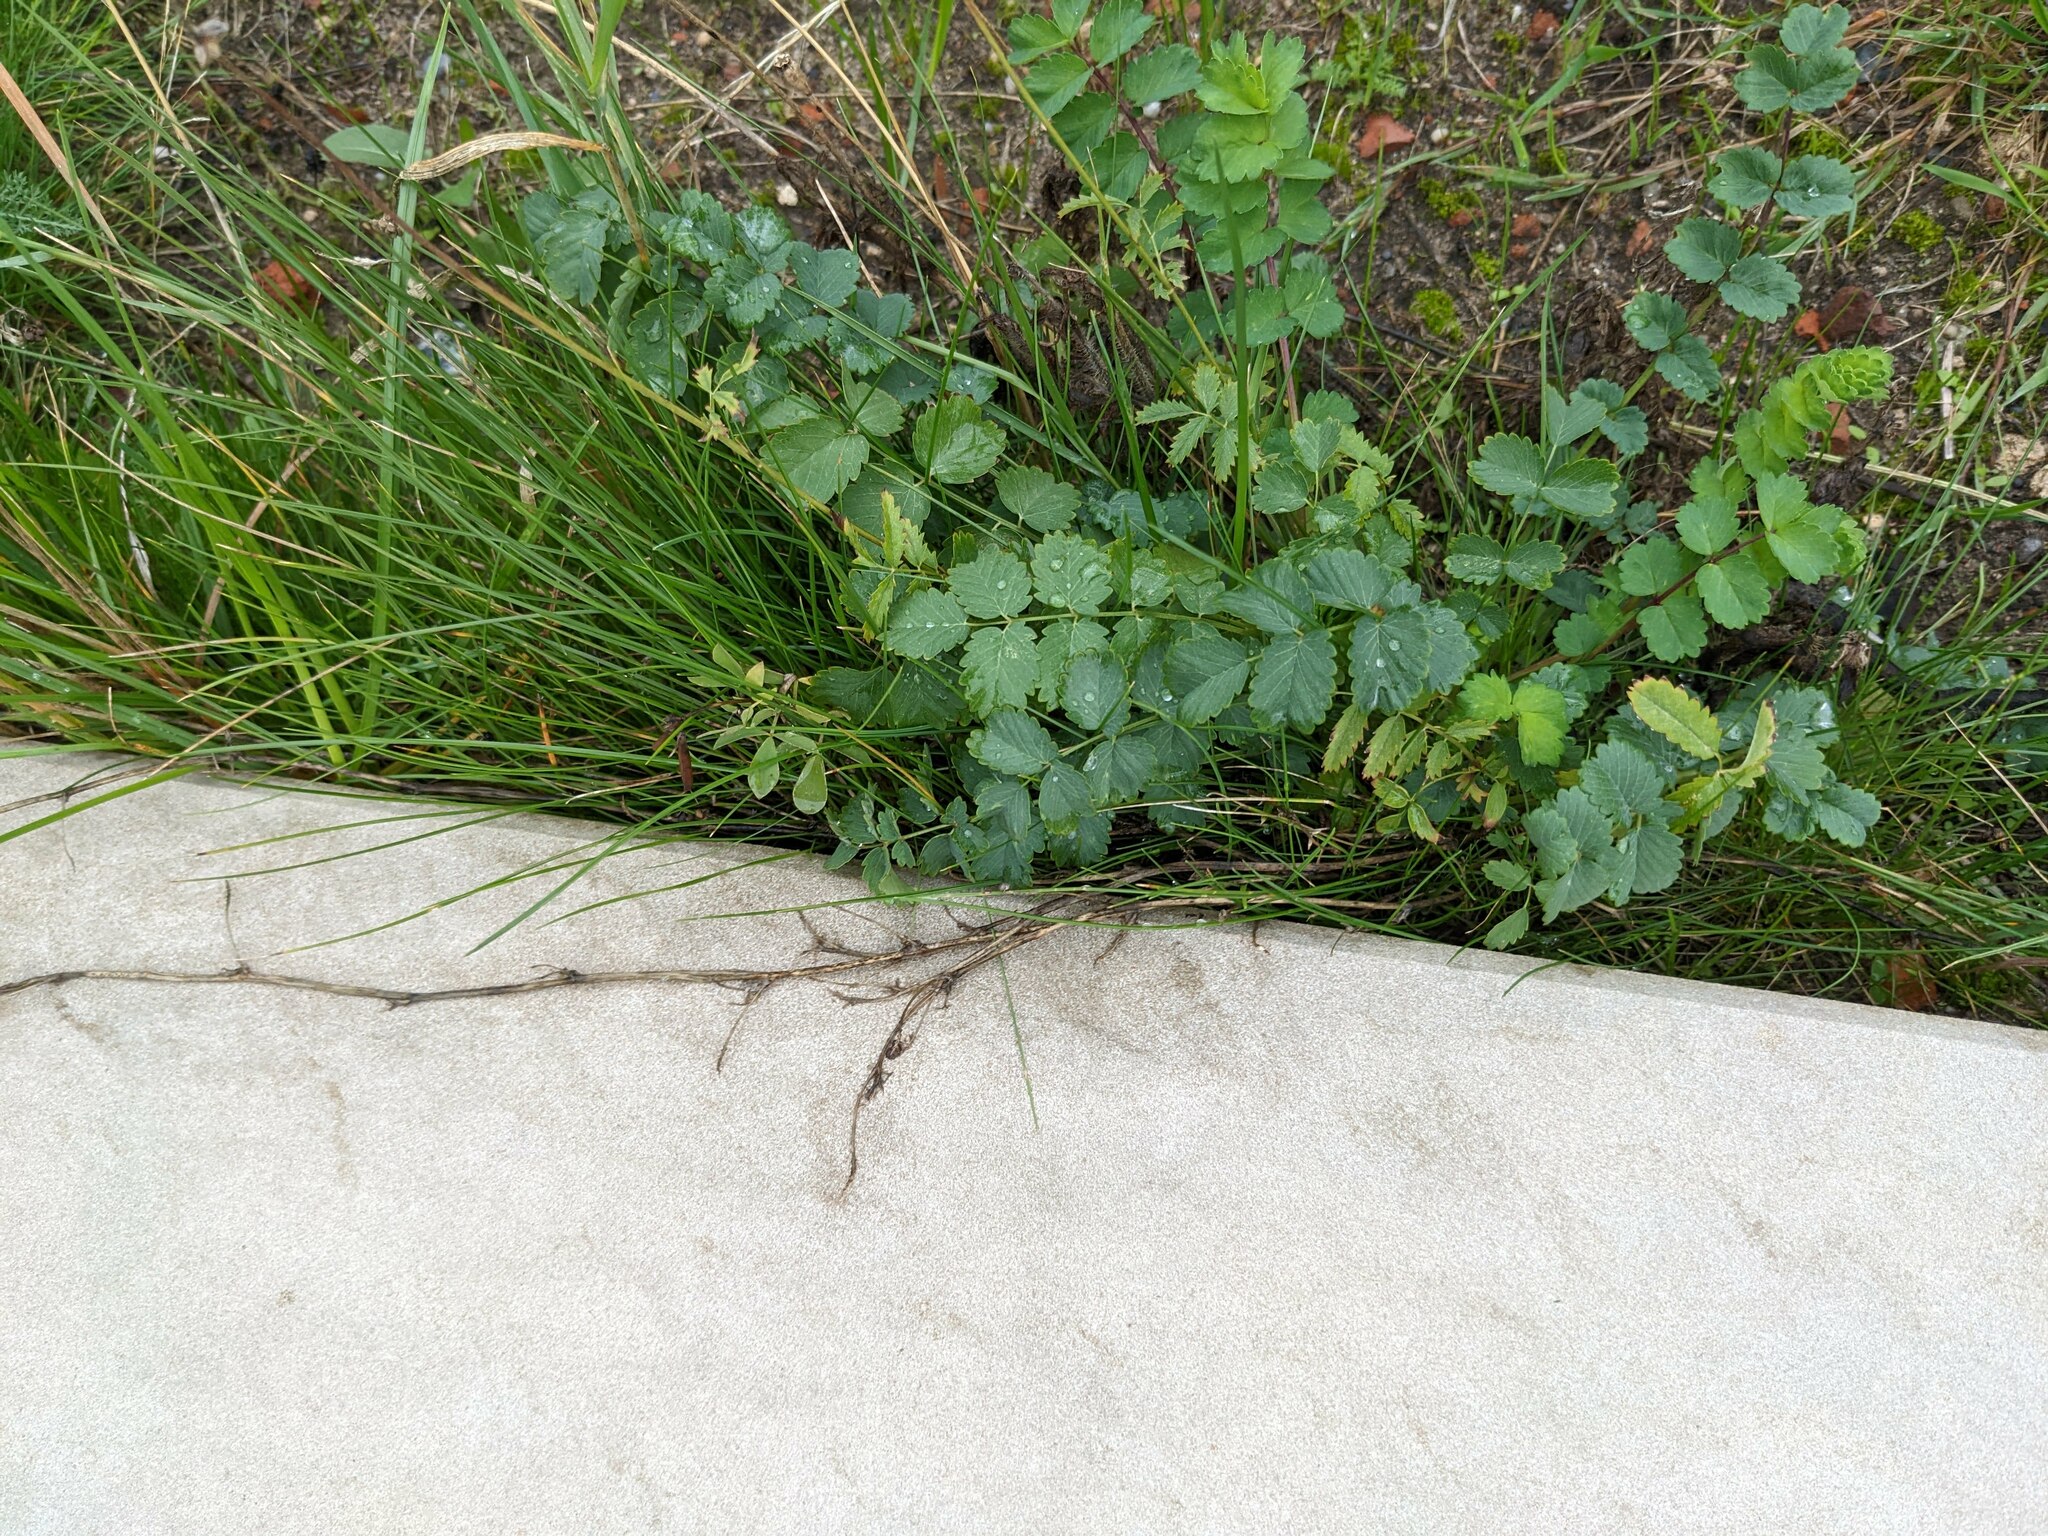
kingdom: Plantae
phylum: Tracheophyta
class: Magnoliopsida
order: Rosales
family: Rosaceae
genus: Poterium
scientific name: Poterium sanguisorba
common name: Salad burnet
